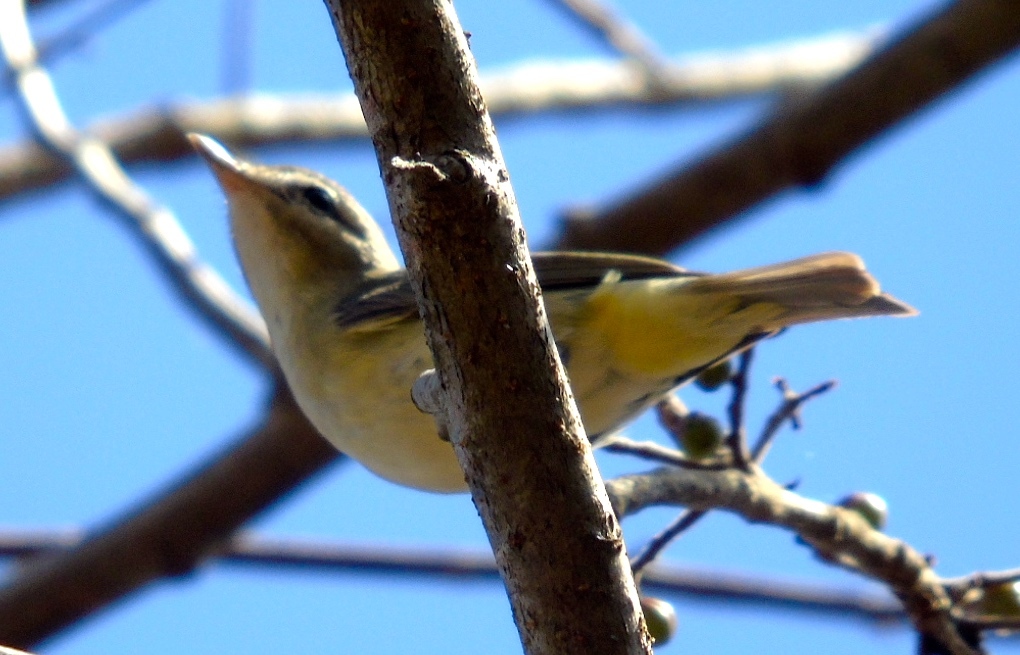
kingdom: Animalia
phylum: Chordata
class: Aves
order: Passeriformes
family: Vireonidae
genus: Vireo
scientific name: Vireo bellii
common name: Bell's vireo
